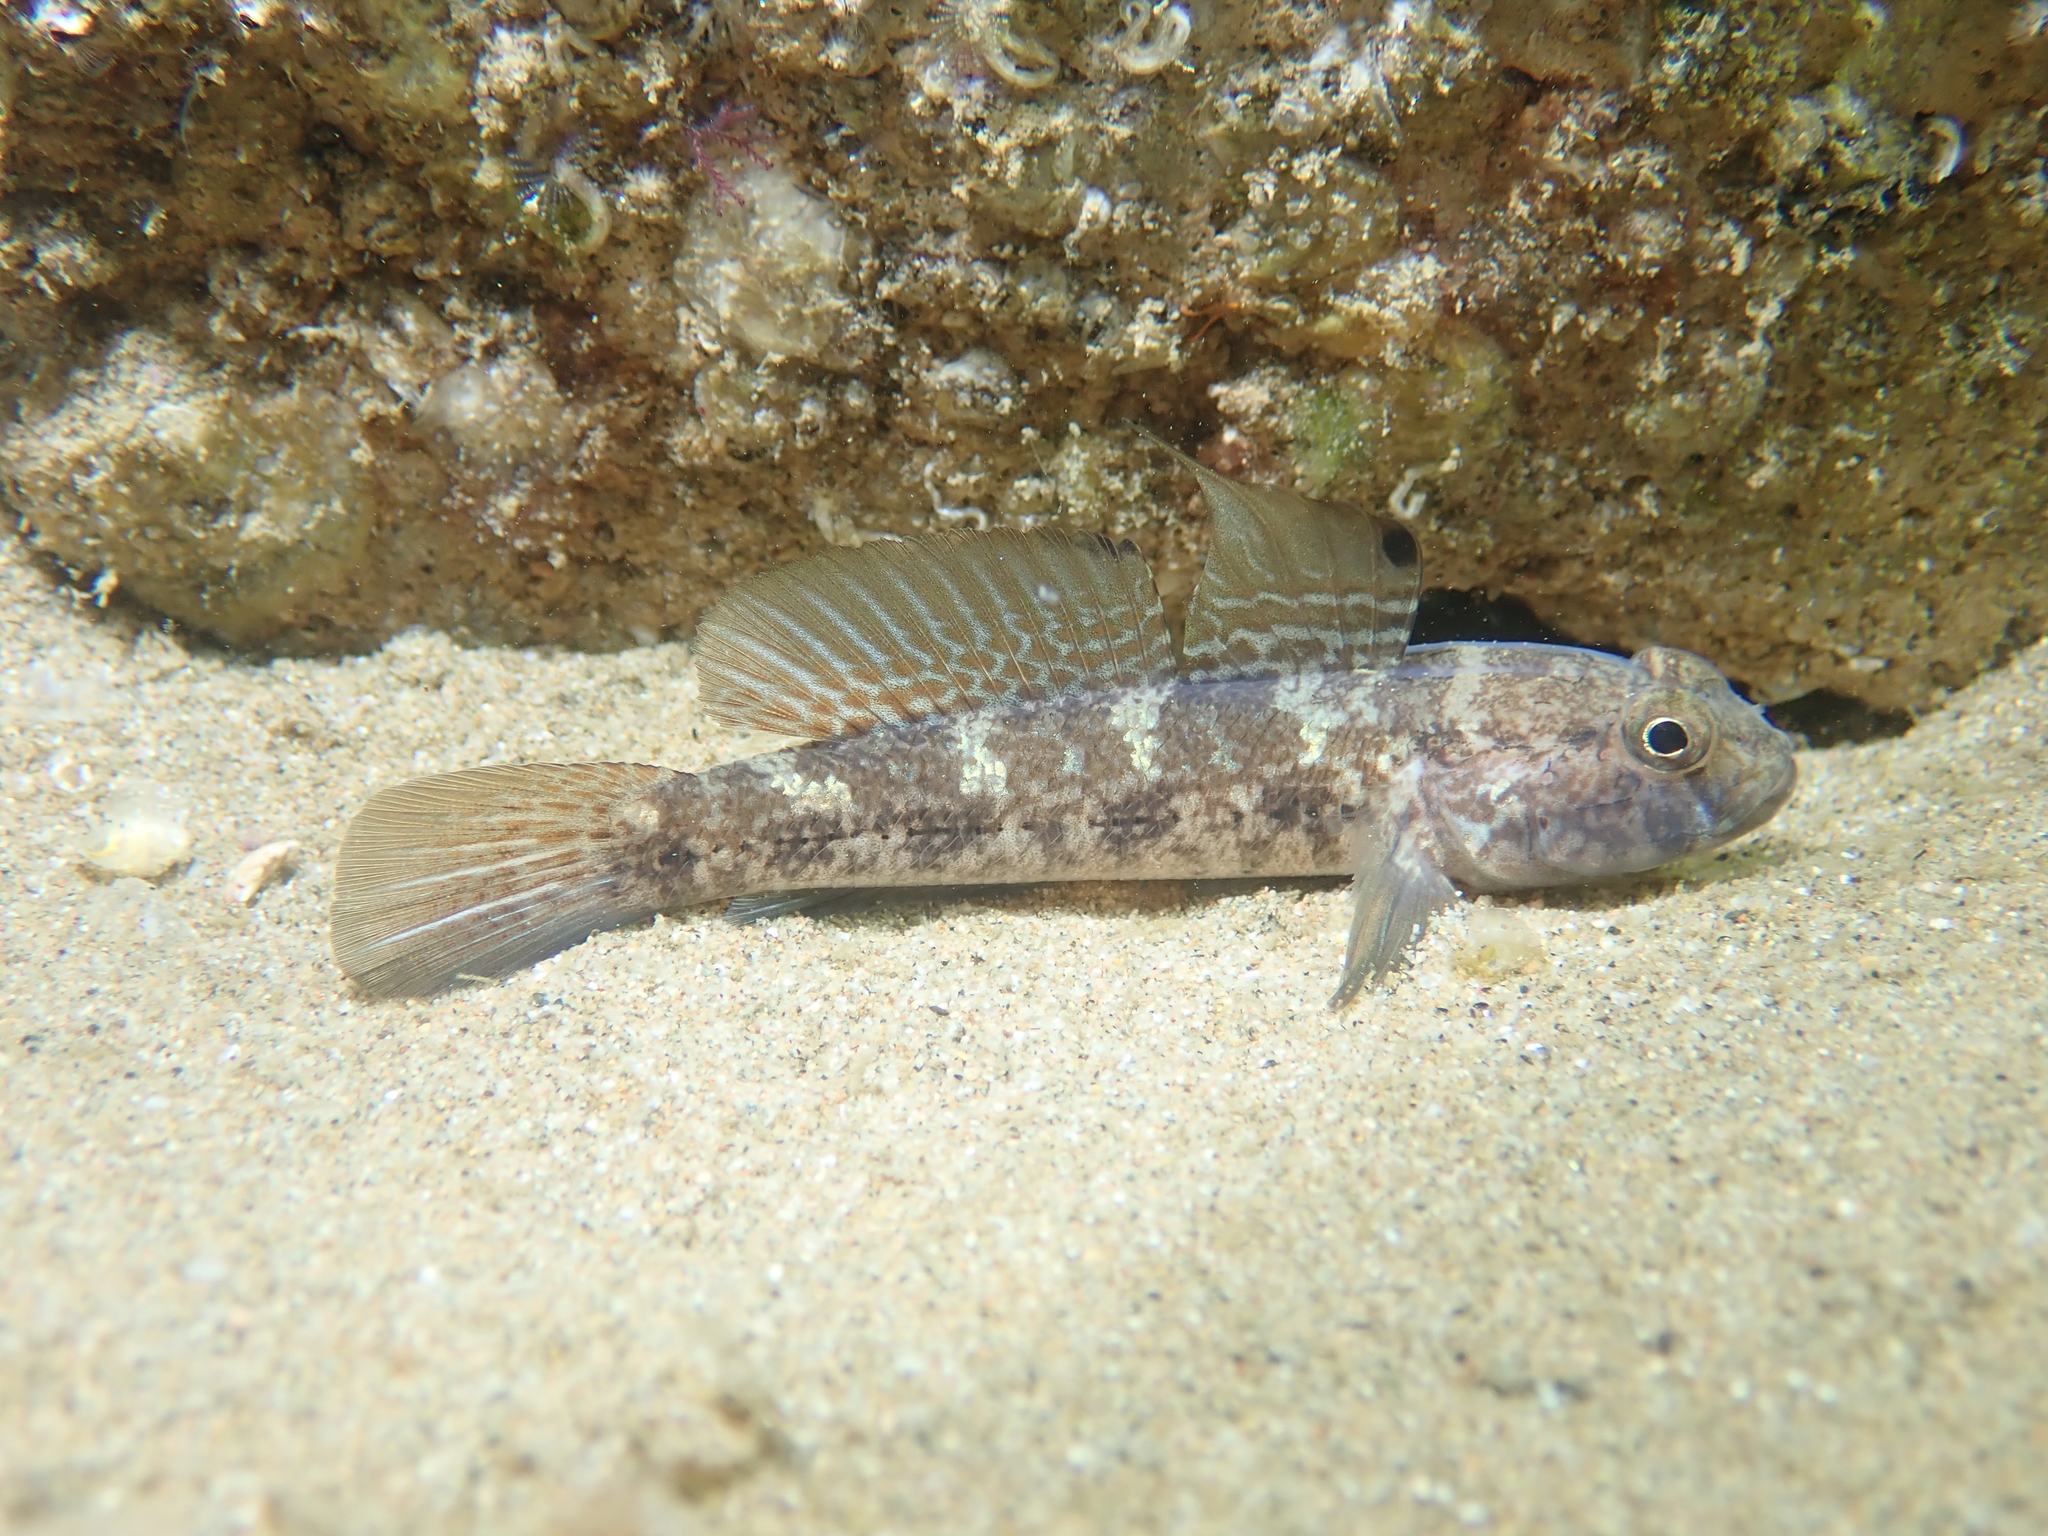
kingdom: Animalia
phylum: Chordata
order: Perciformes
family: Gobiidae
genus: Gobius
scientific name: Gobius niger
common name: Black goby
